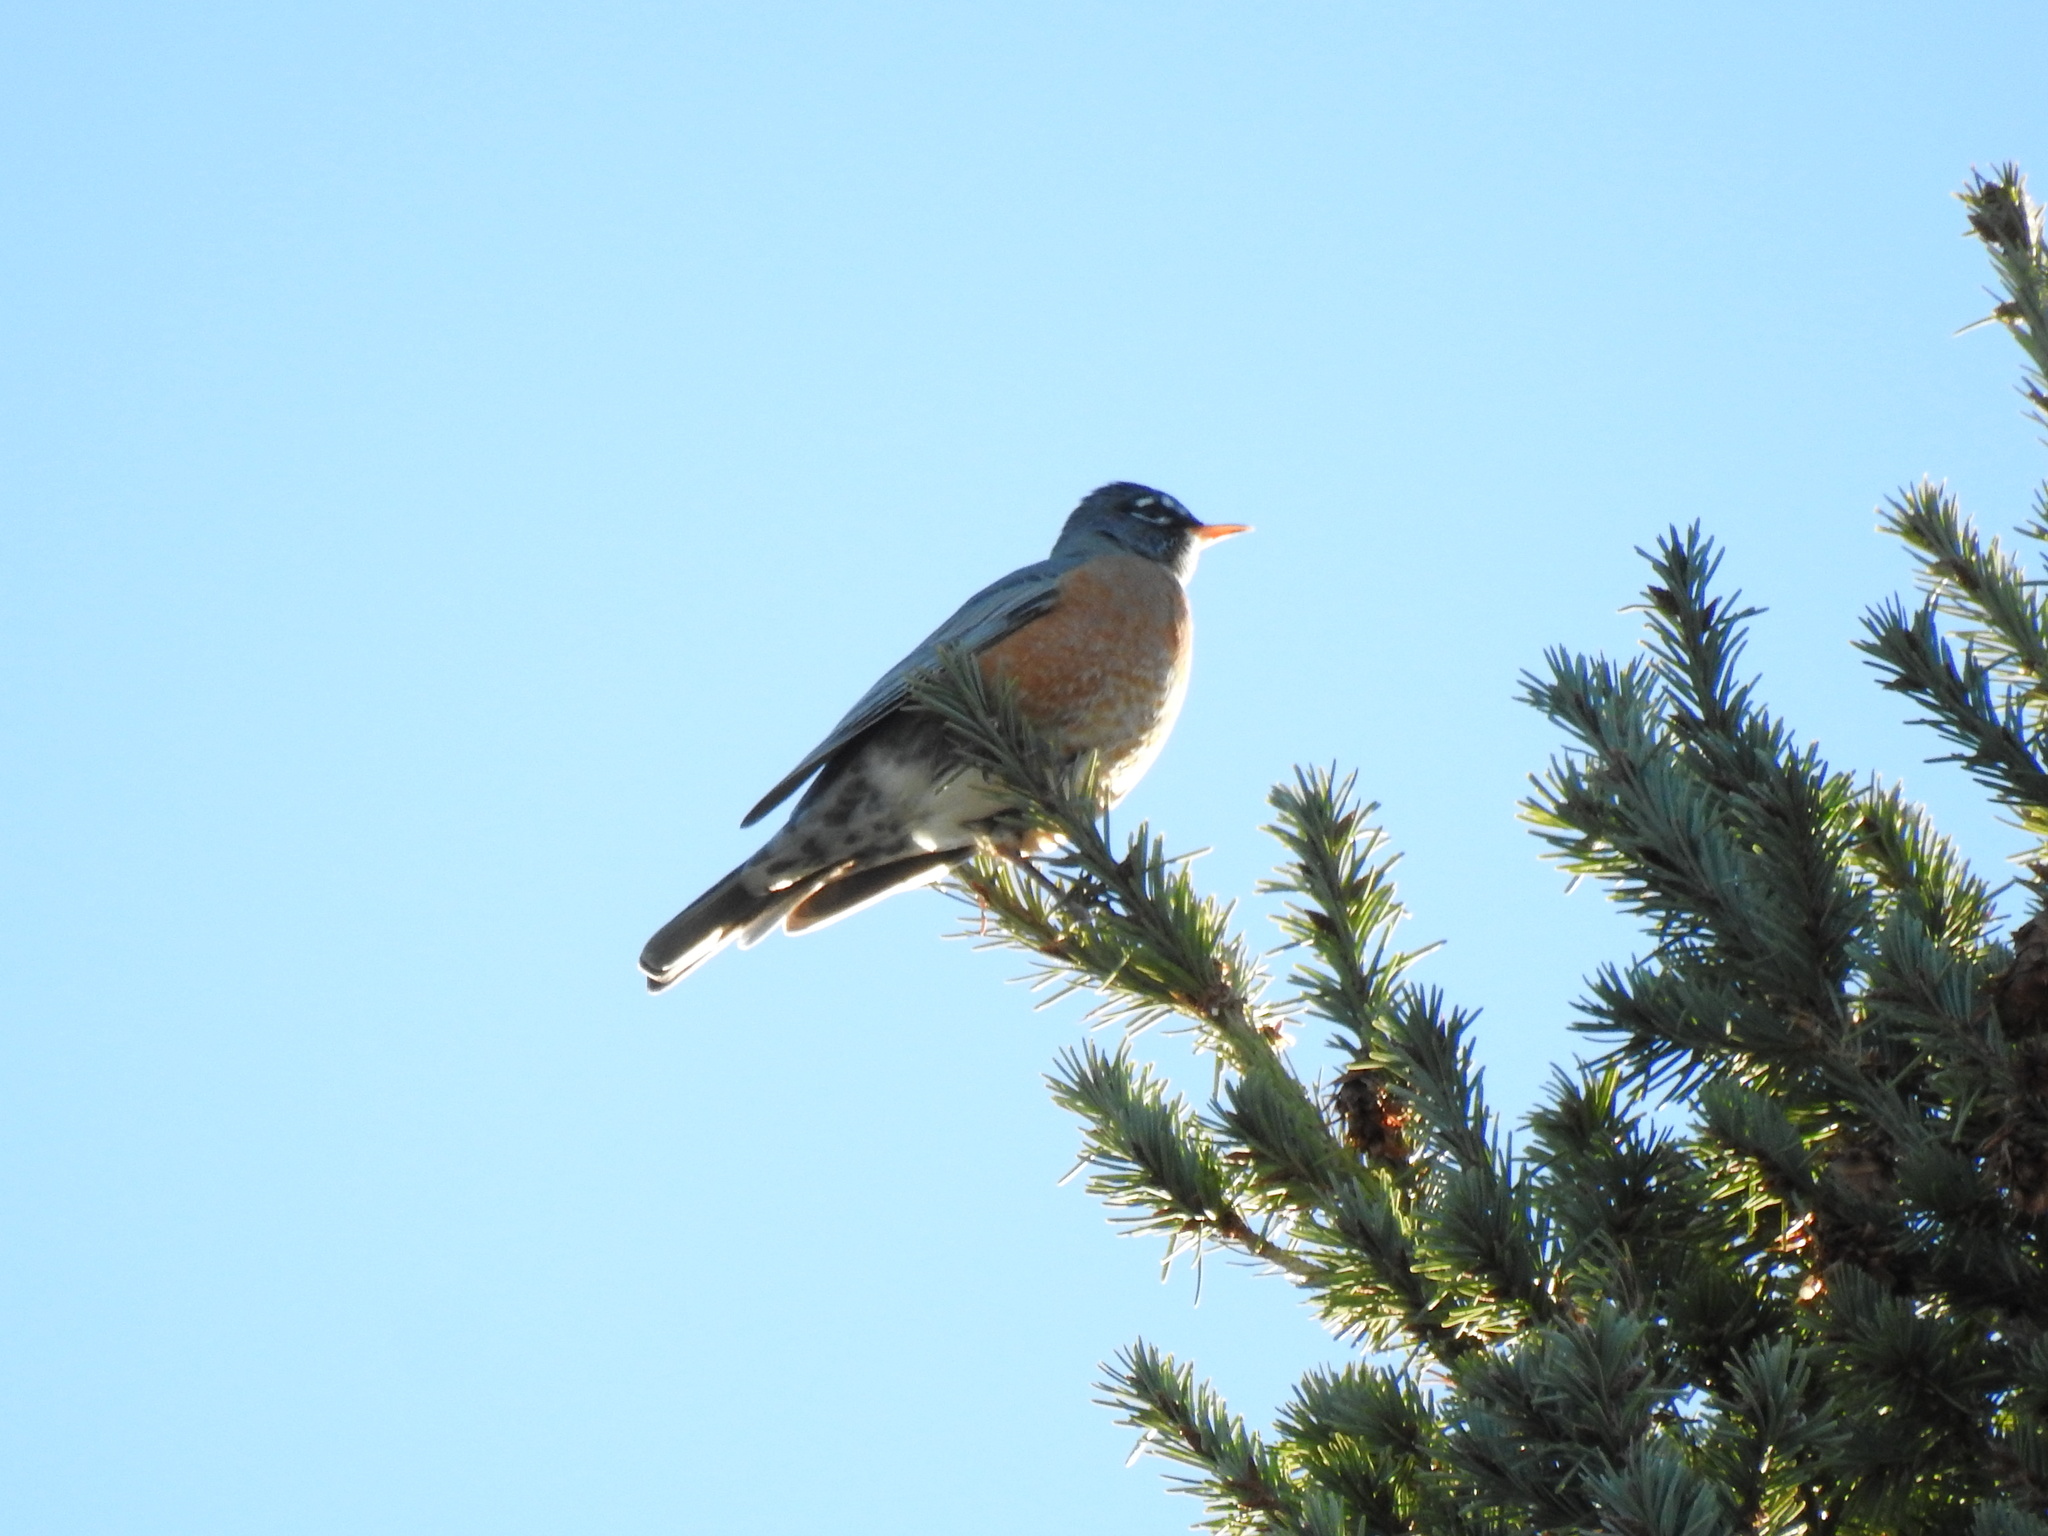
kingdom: Animalia
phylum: Chordata
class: Aves
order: Passeriformes
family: Turdidae
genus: Turdus
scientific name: Turdus migratorius
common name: American robin
